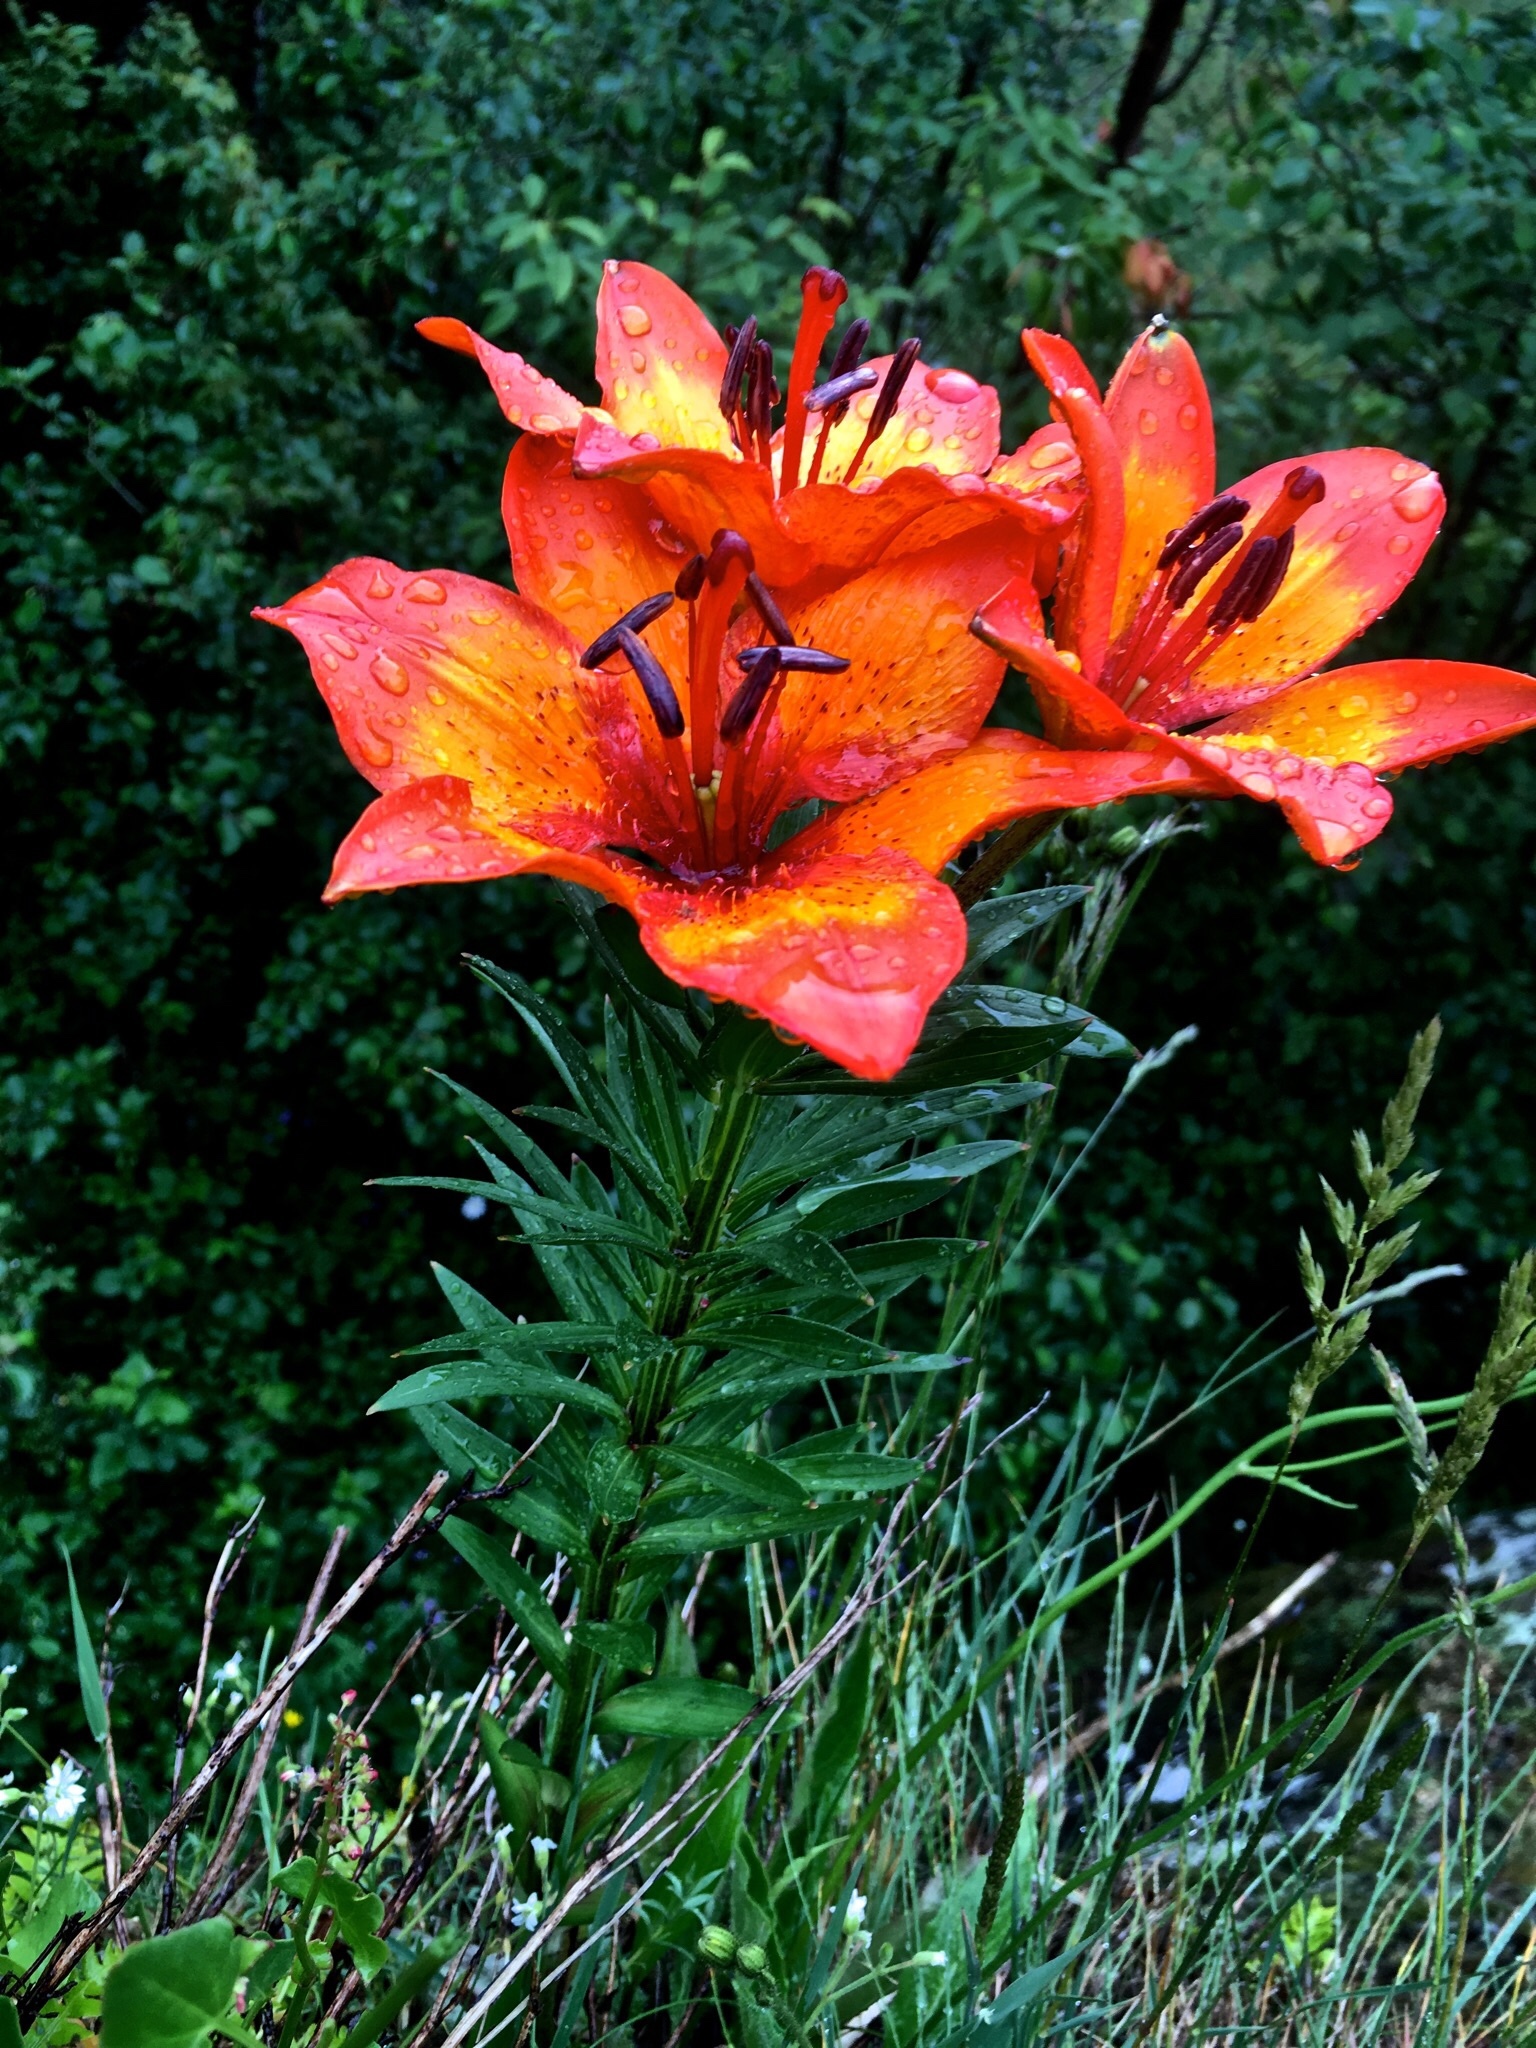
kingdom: Plantae
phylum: Tracheophyta
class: Liliopsida
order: Liliales
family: Liliaceae
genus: Lilium
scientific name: Lilium bulbiferum
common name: Orange lily
